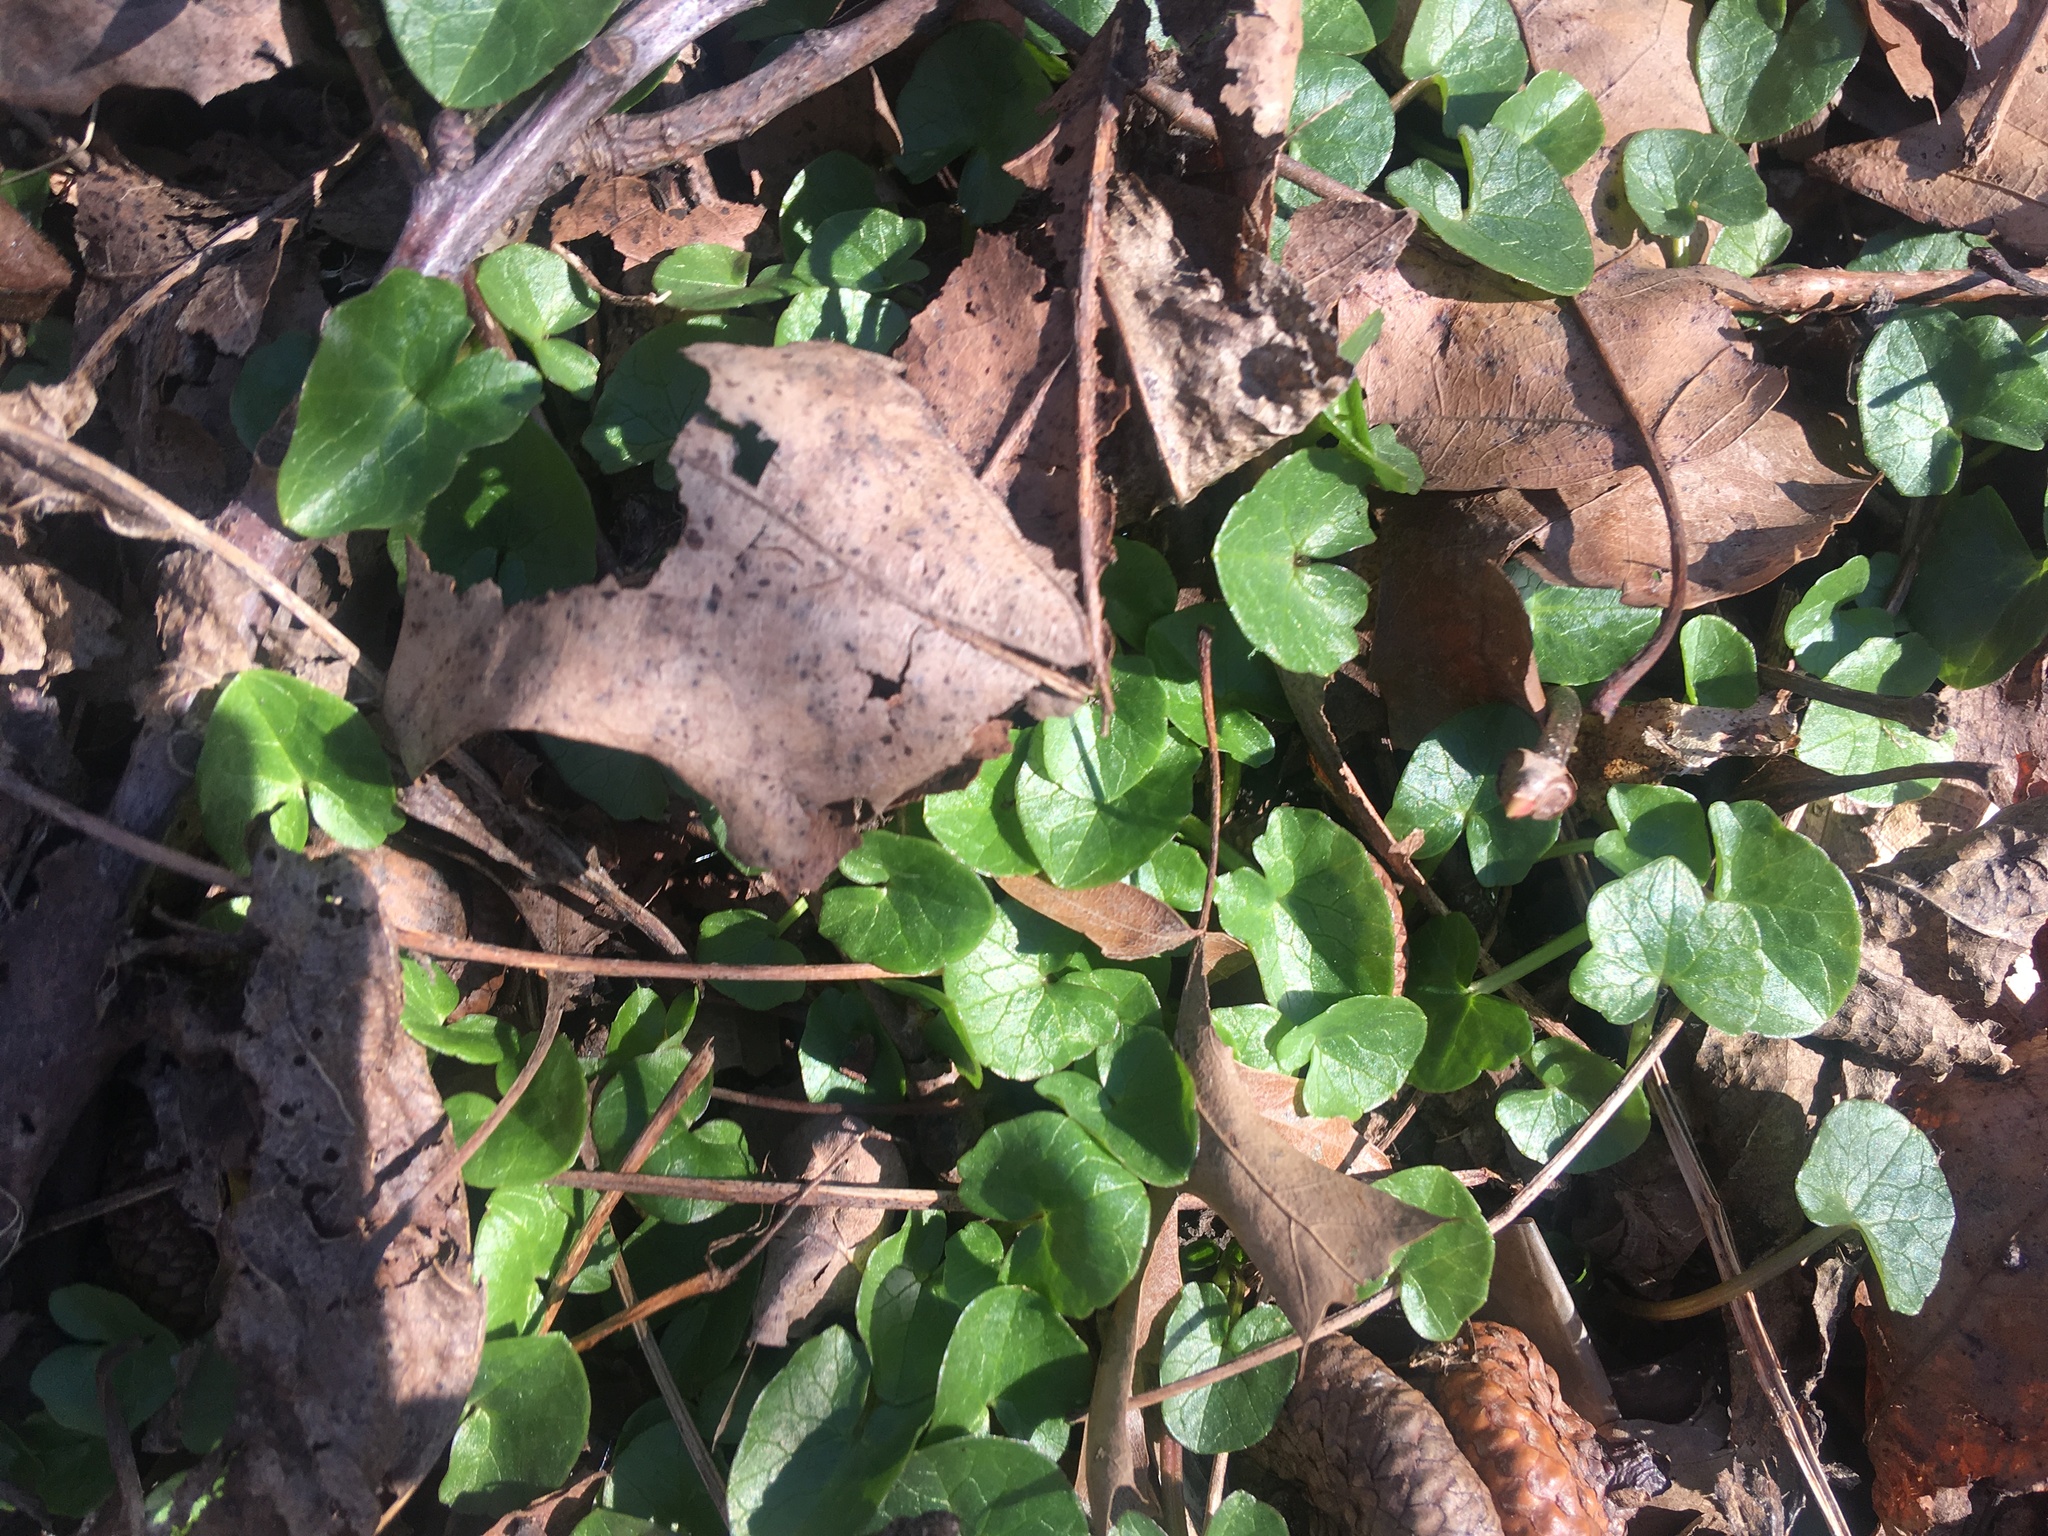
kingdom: Plantae
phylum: Tracheophyta
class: Magnoliopsida
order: Ranunculales
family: Ranunculaceae
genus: Ficaria
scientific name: Ficaria verna
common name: Lesser celandine
